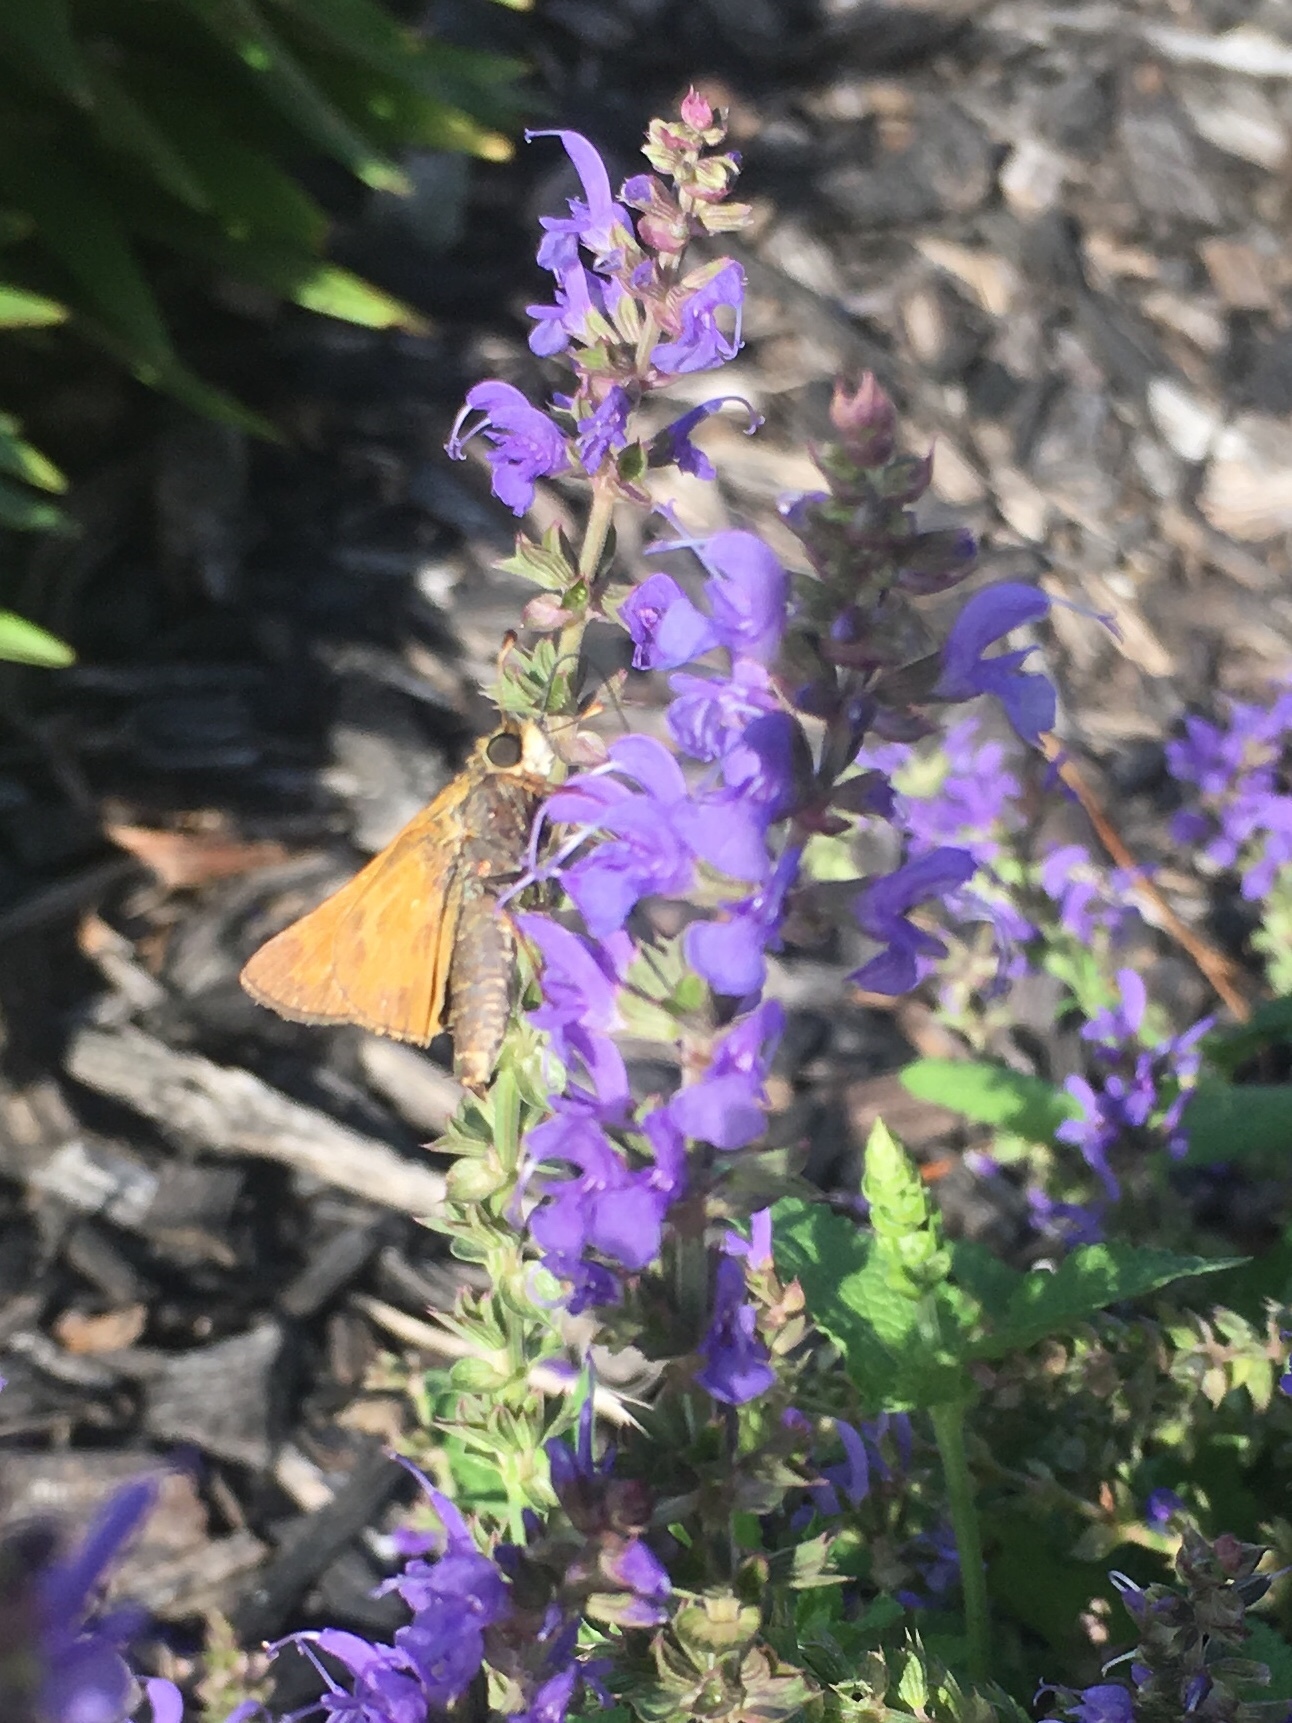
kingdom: Animalia
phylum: Arthropoda
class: Insecta
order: Lepidoptera
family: Hesperiidae
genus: Atalopedes
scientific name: Atalopedes
